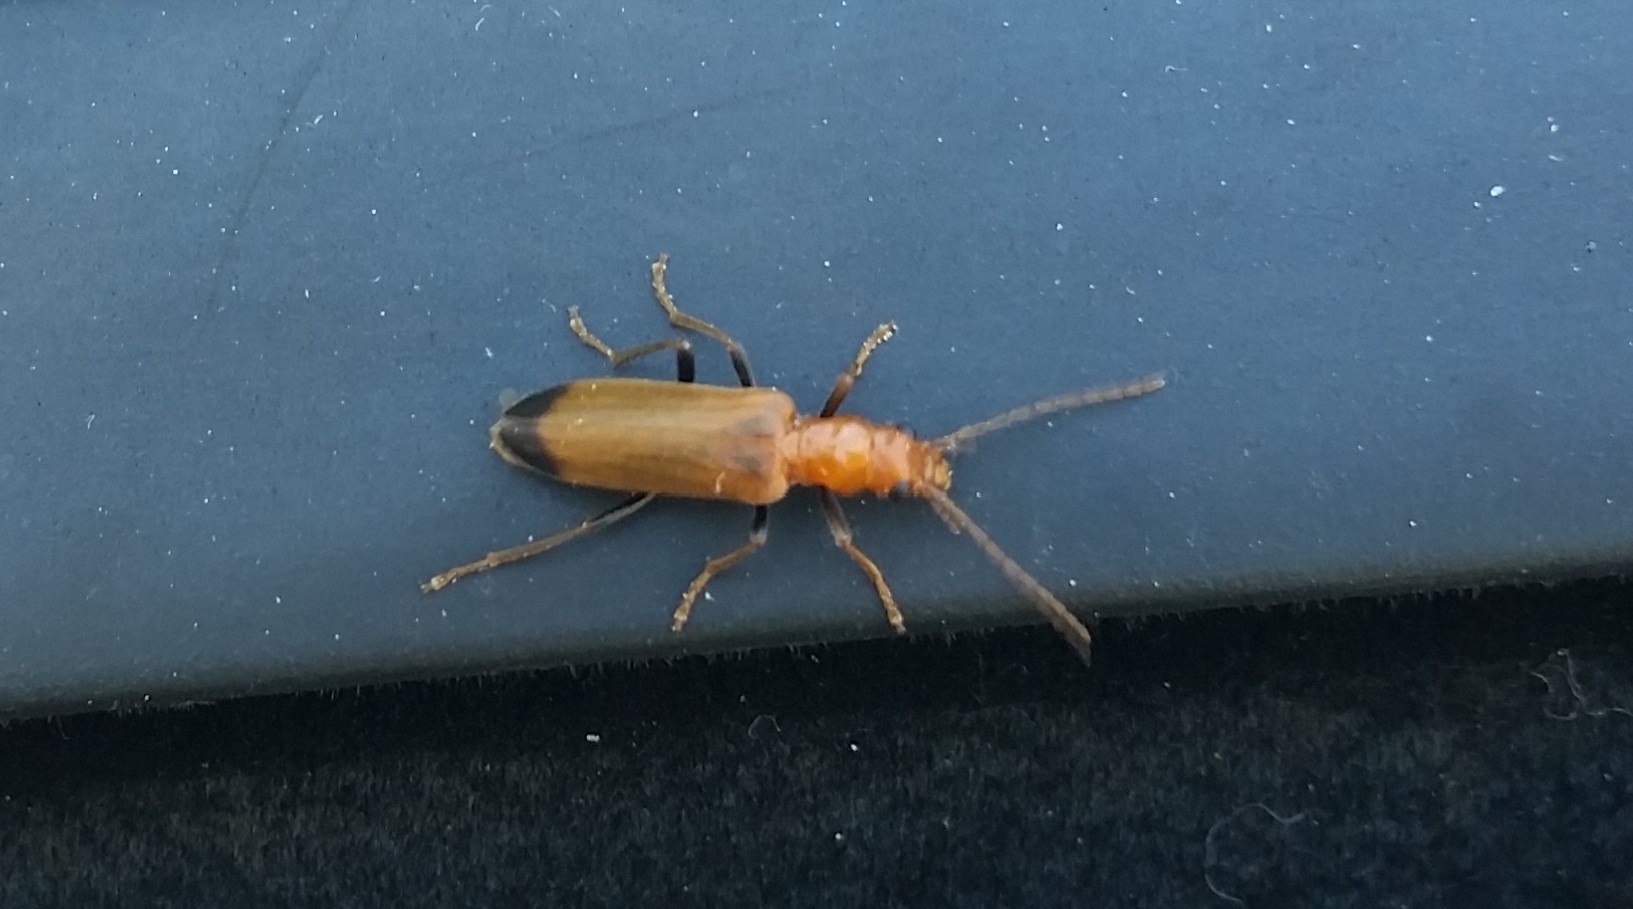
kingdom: Animalia
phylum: Arthropoda
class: Insecta
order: Coleoptera
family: Oedemeridae
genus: Nacerdes
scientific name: Nacerdes melanura
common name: Wharf borer
